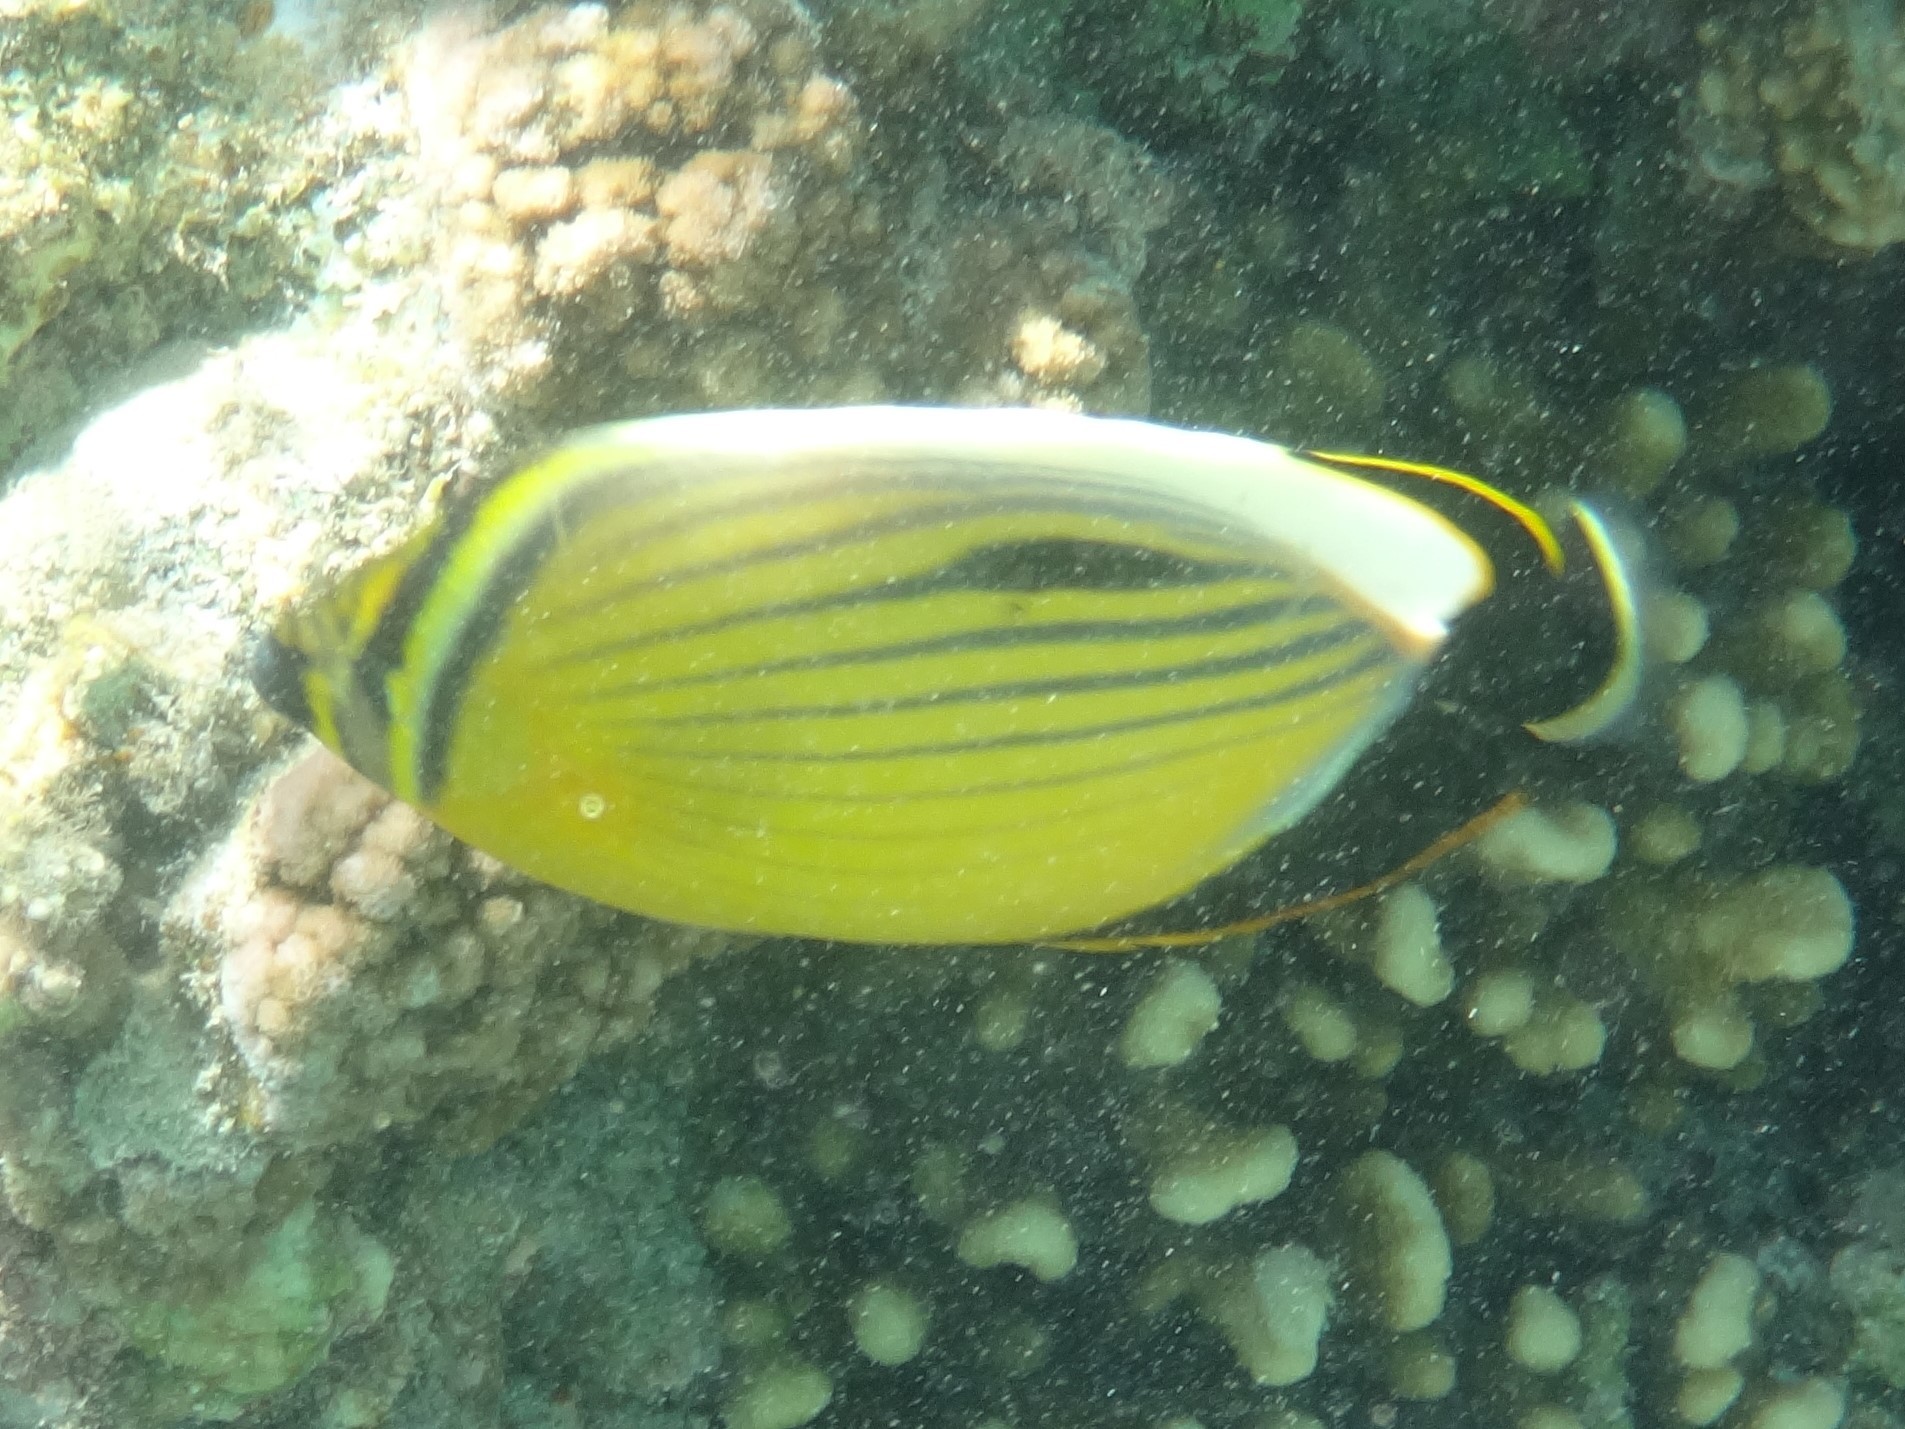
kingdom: Animalia
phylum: Chordata
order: Perciformes
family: Chaetodontidae
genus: Chaetodon
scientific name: Chaetodon austriacus
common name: Exquisite butterflyfish
